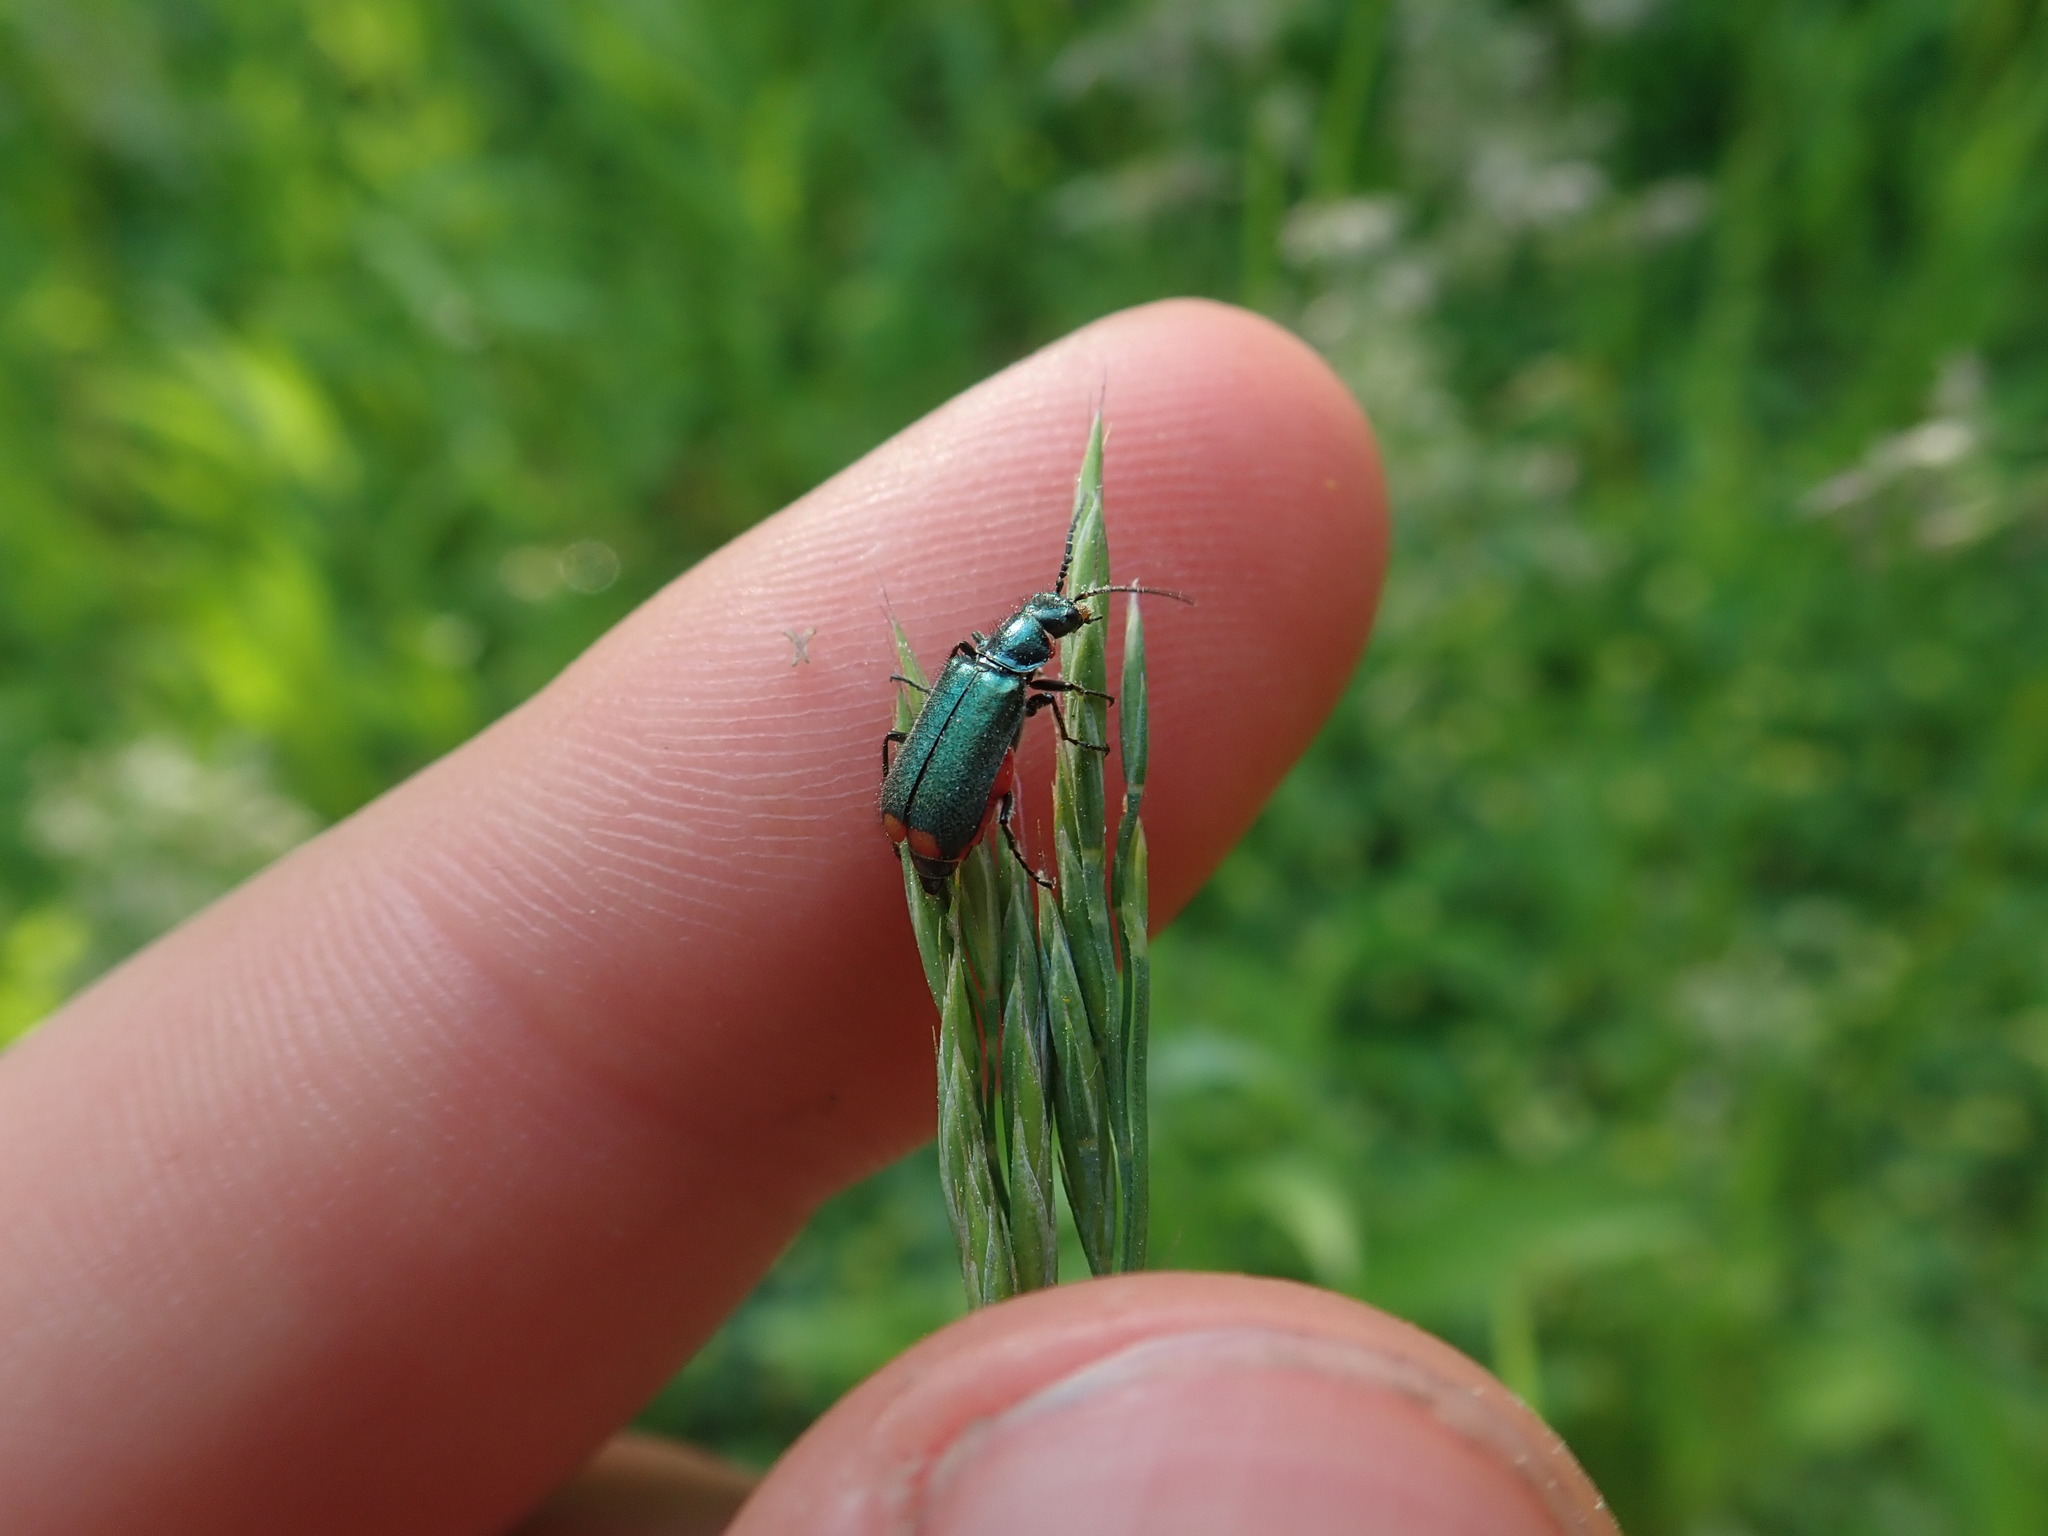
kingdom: Animalia
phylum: Arthropoda
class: Insecta
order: Coleoptera
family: Melyridae
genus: Malachius
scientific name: Malachius bipustulatus
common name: Malachite beetle
